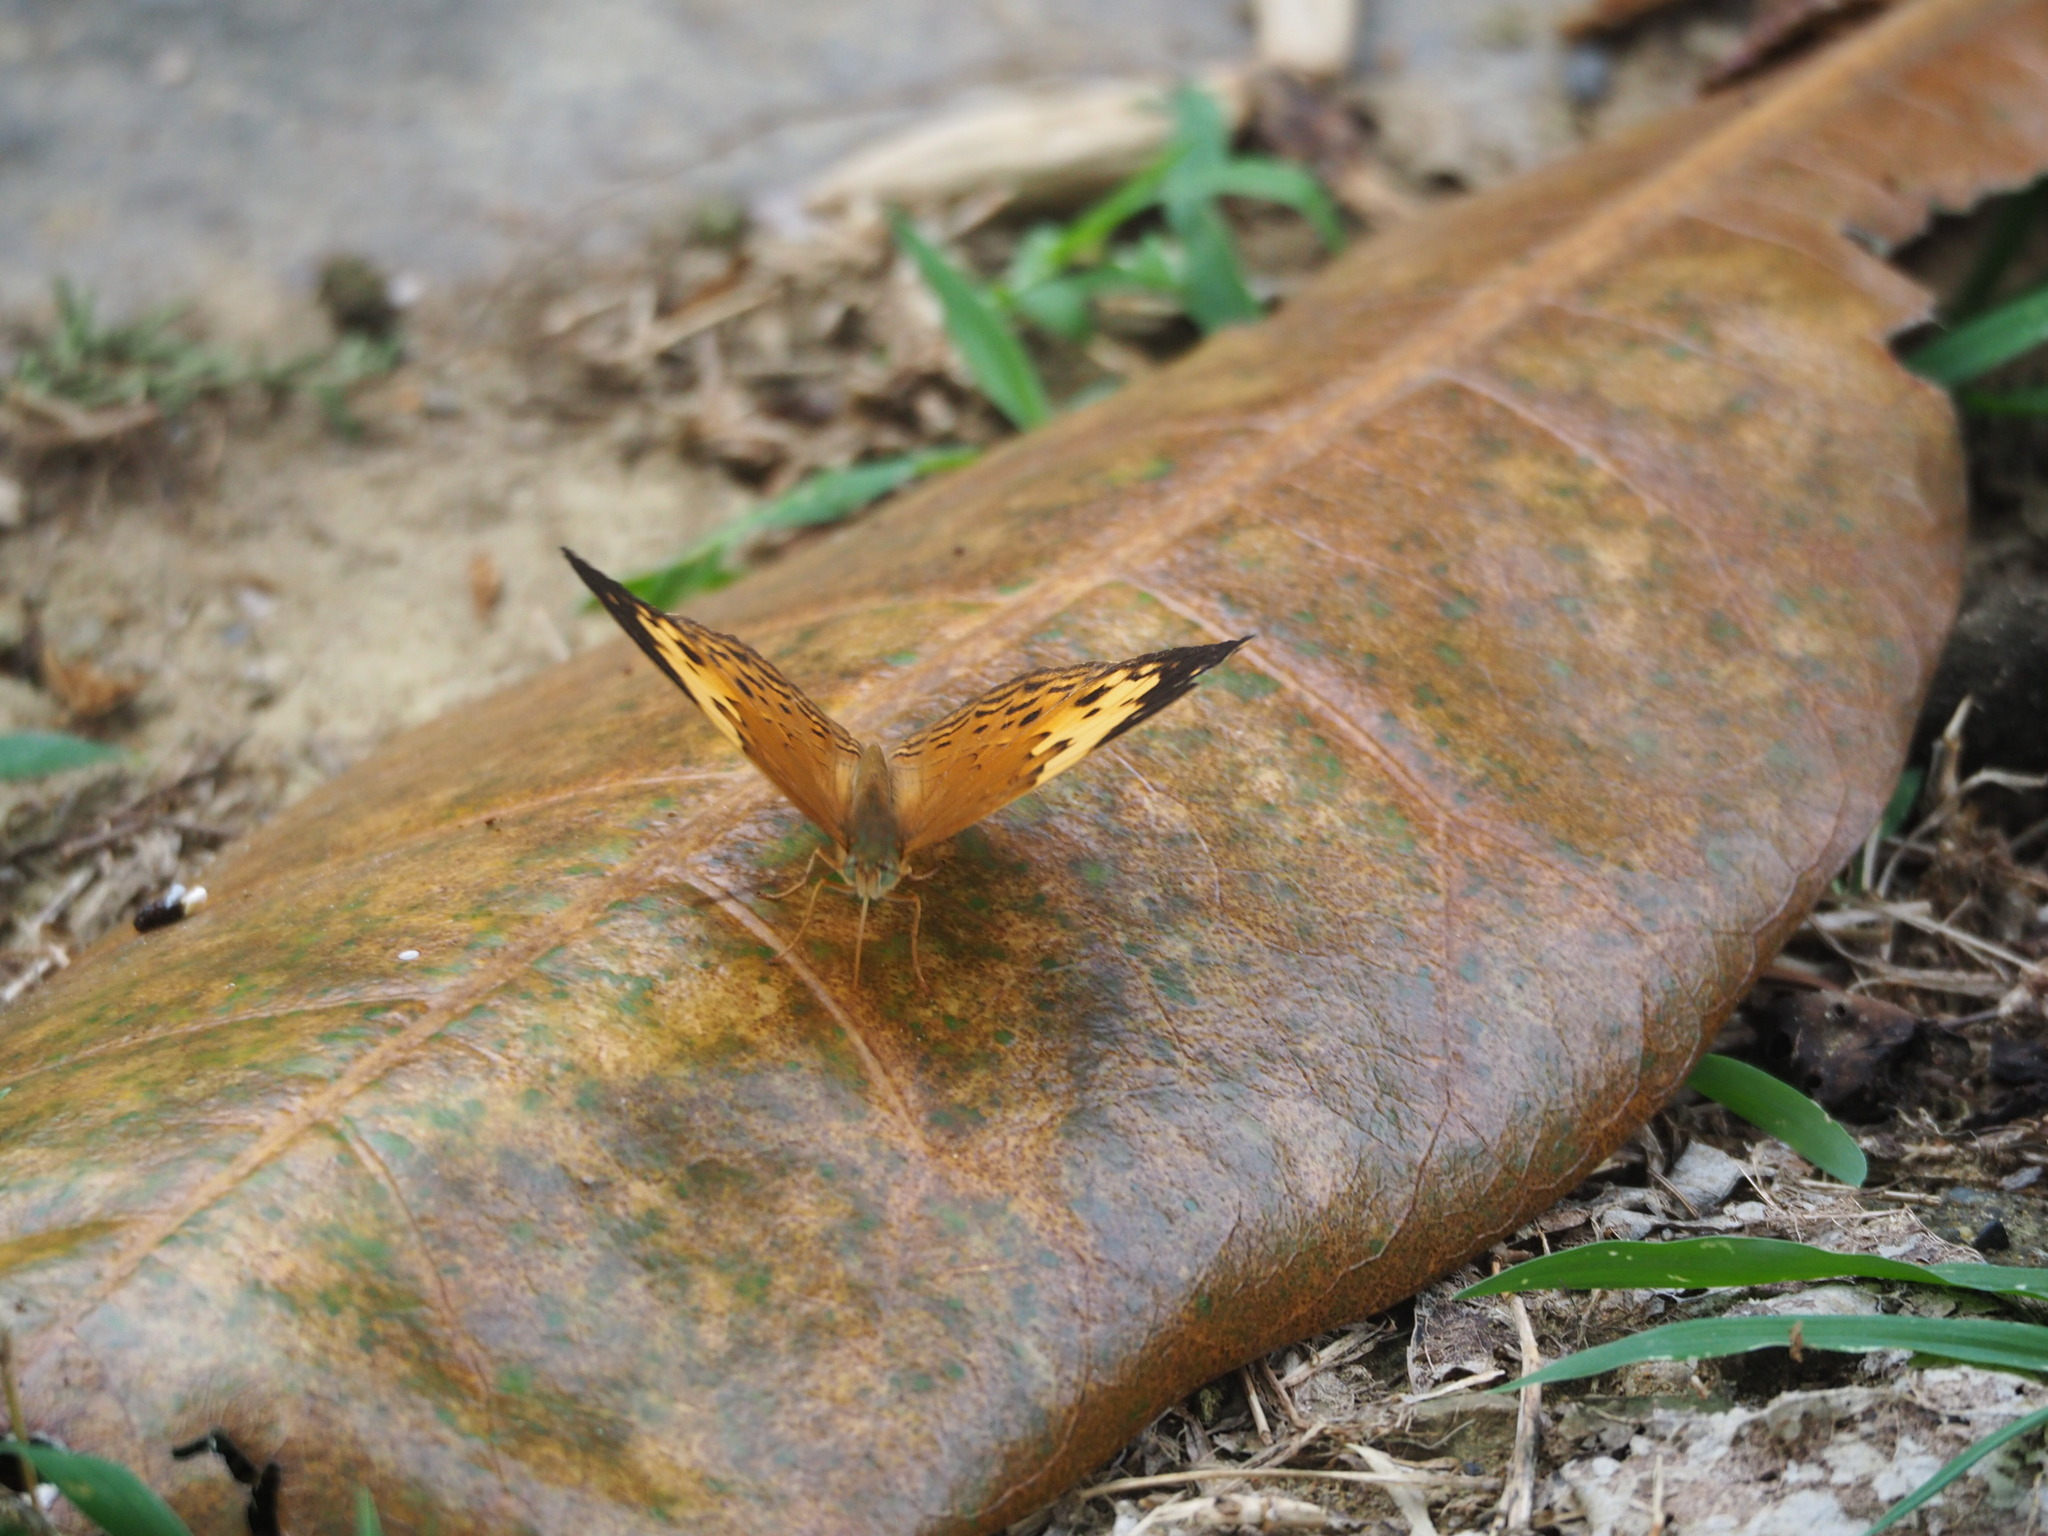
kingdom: Animalia
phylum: Arthropoda
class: Insecta
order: Lepidoptera
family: Nymphalidae
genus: Cupha
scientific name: Cupha erymanthis
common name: Rustic
